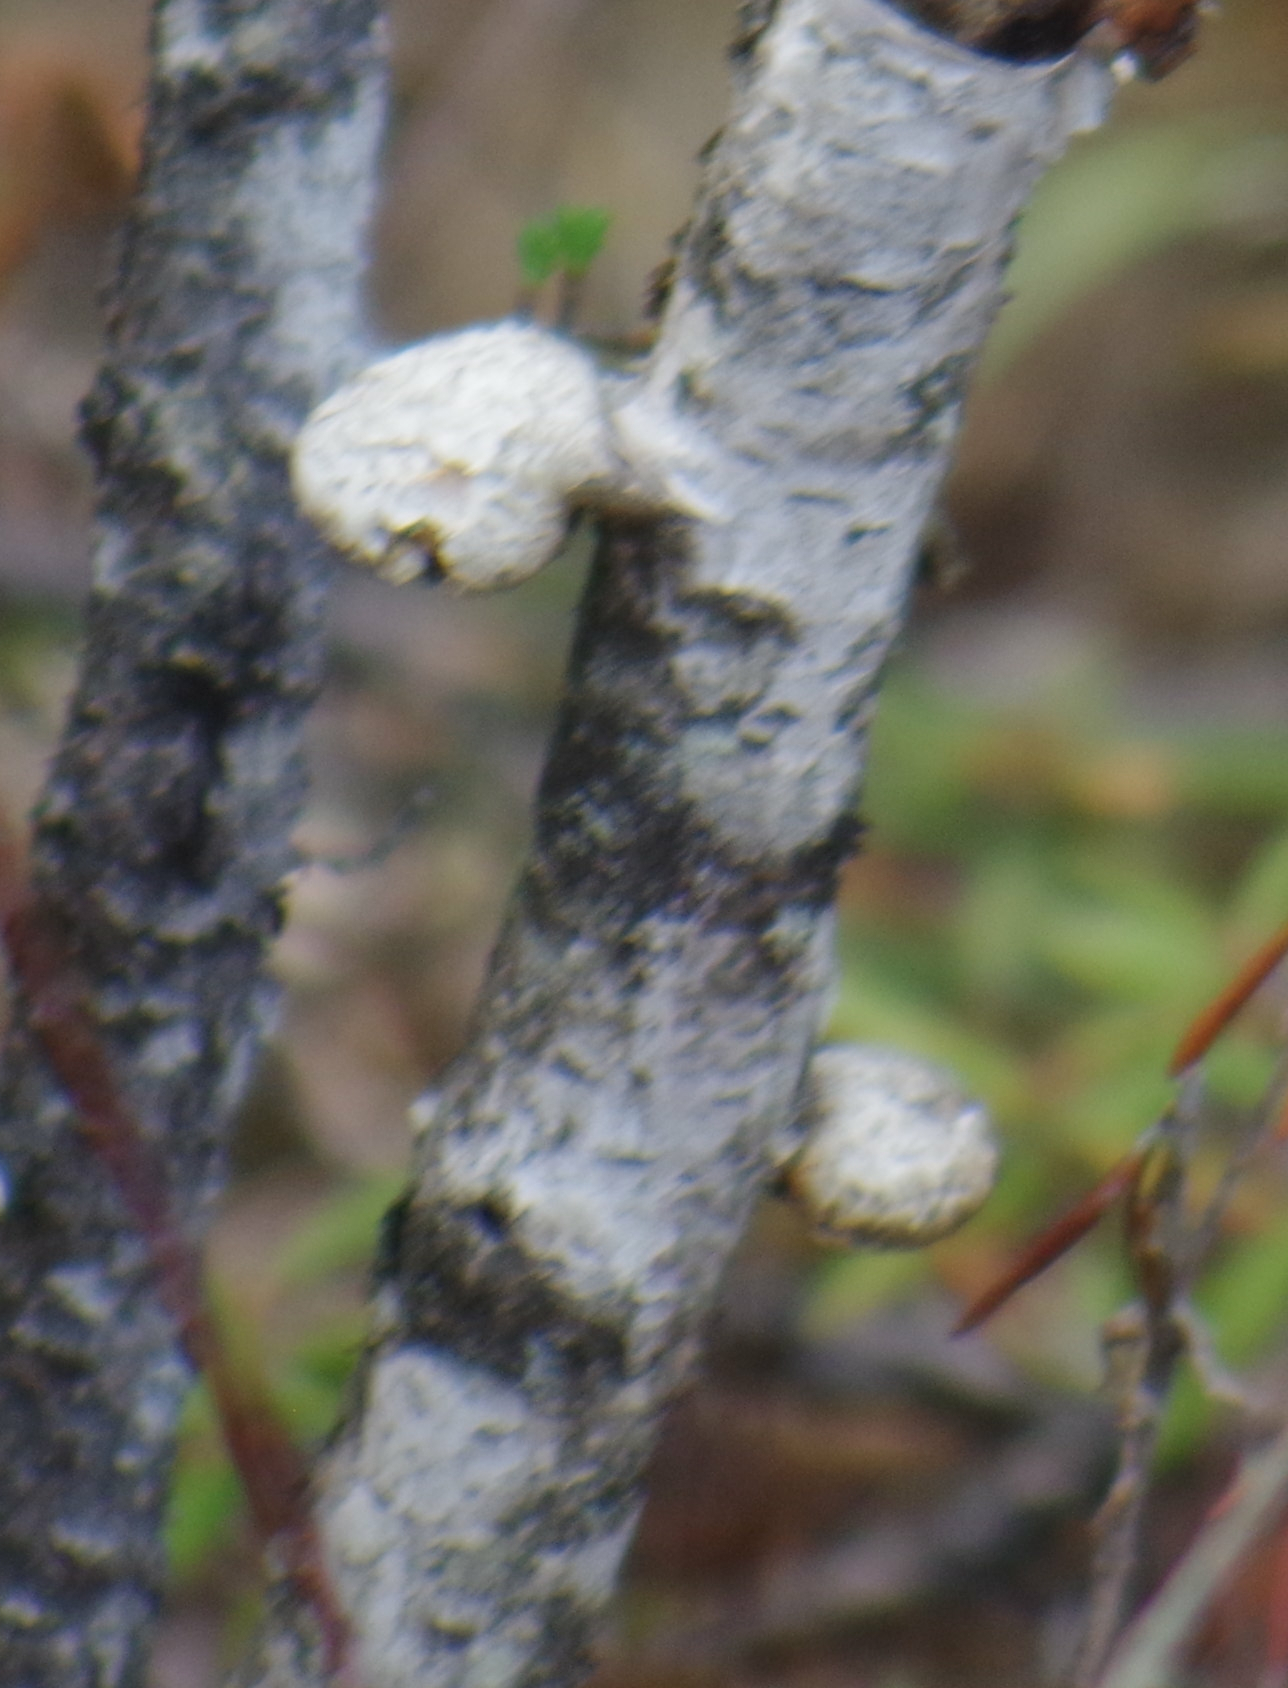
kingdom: Fungi
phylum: Basidiomycota
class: Agaricomycetes
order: Polyporales
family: Fomitopsidaceae
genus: Fomitopsis
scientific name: Fomitopsis betulina
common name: Birch polypore
